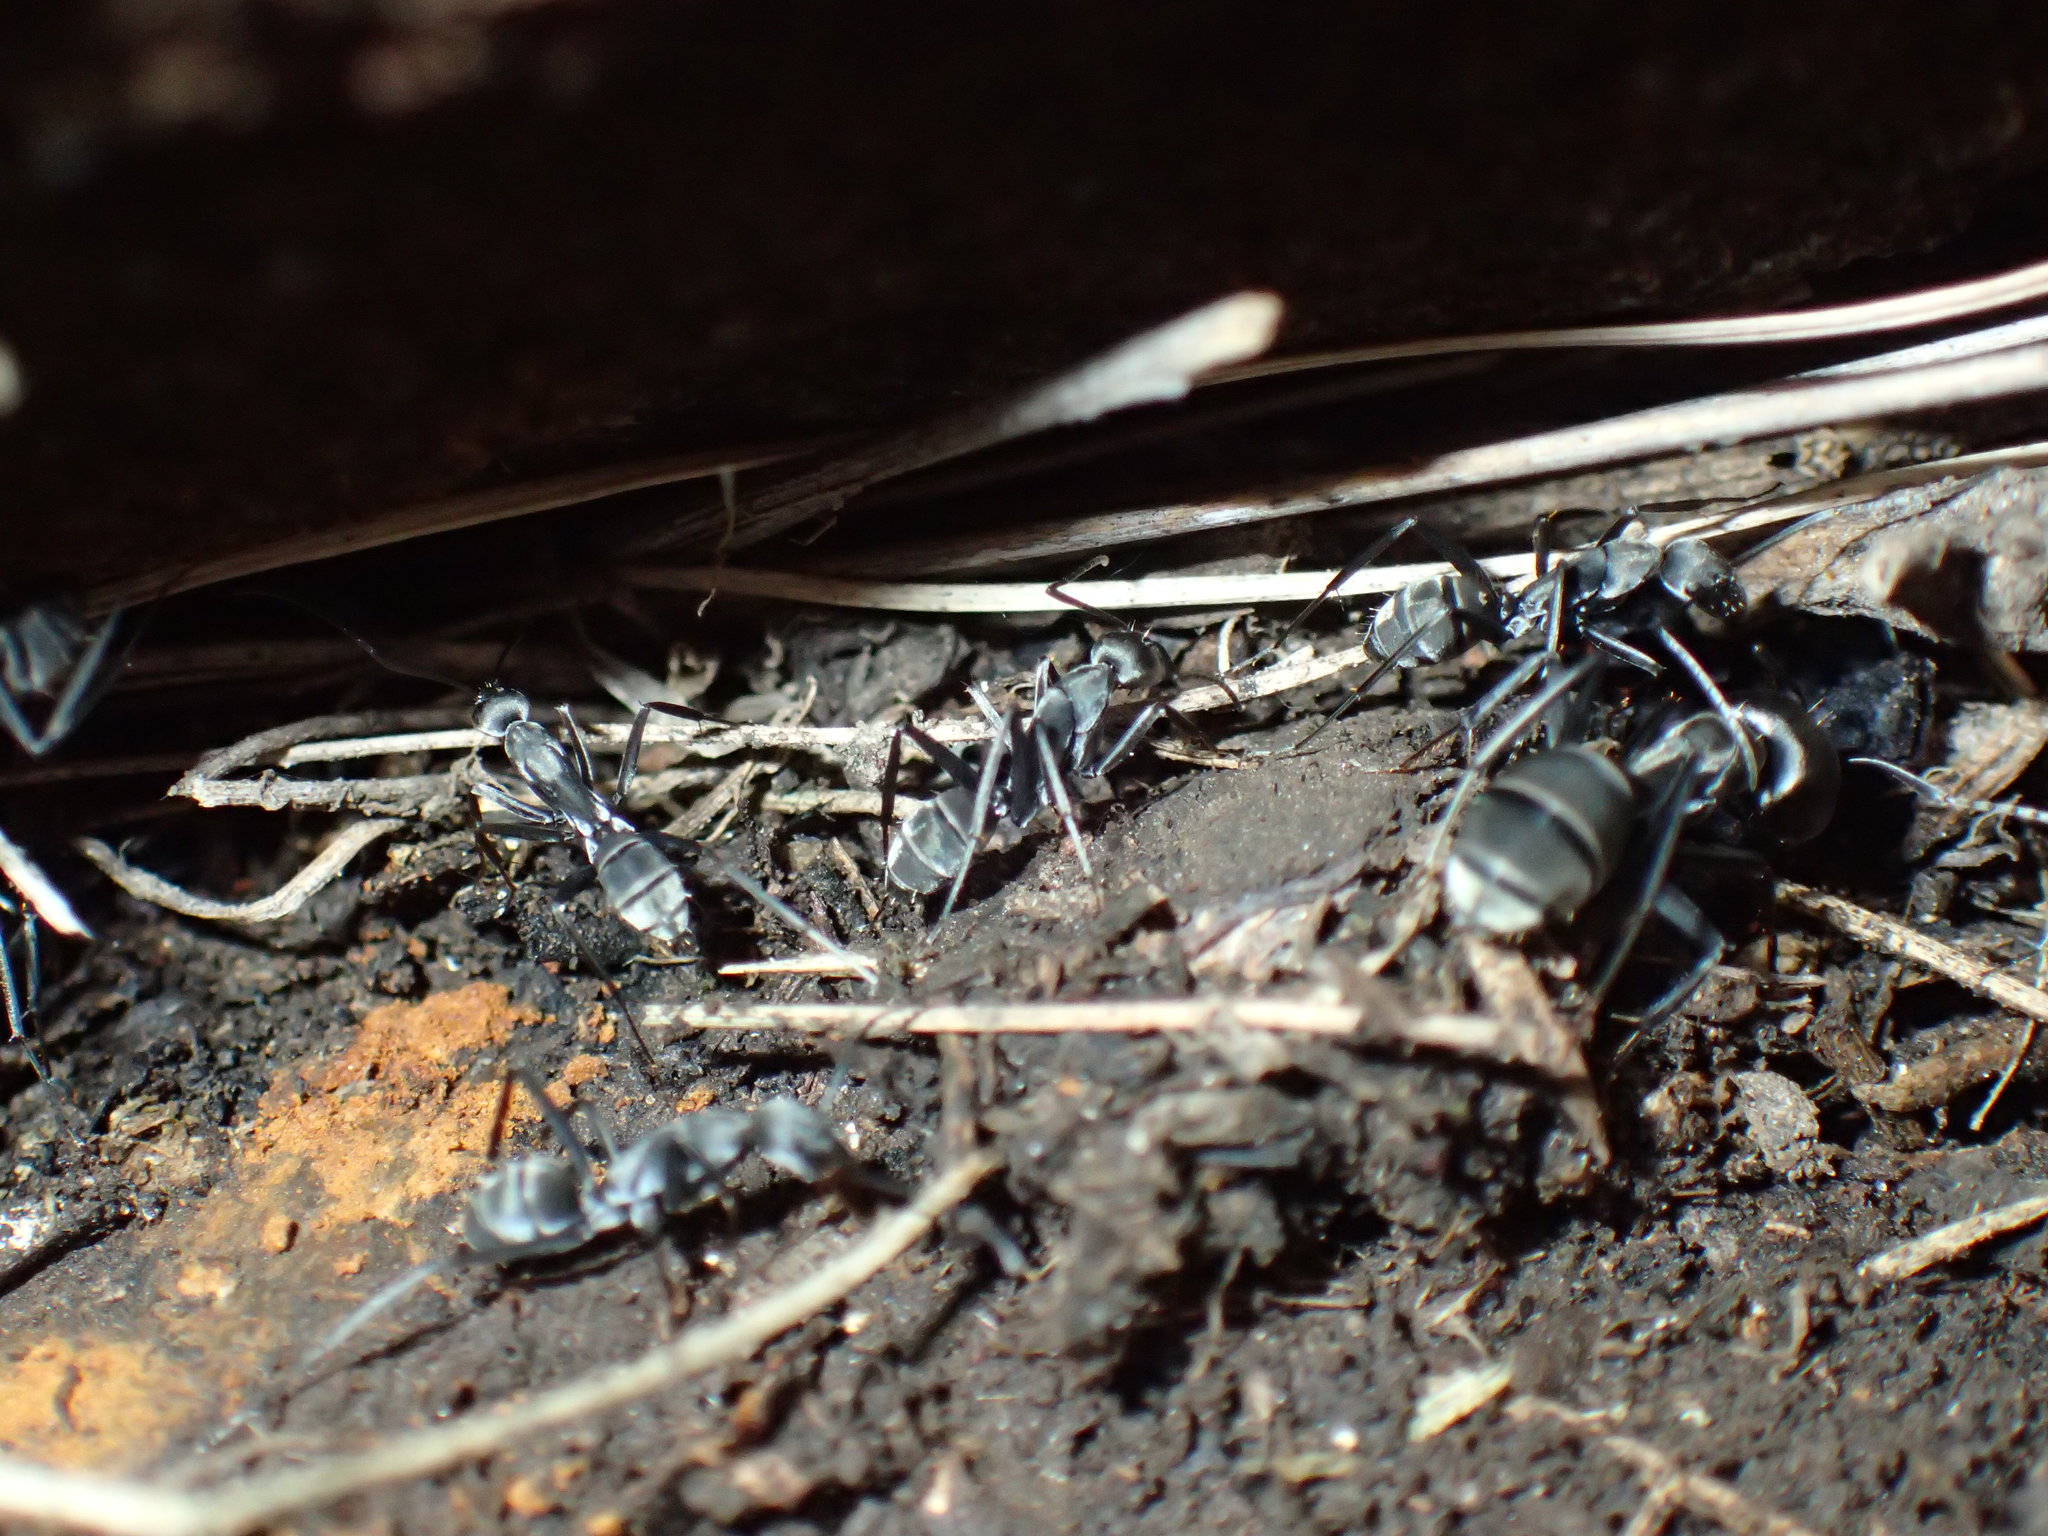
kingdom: Animalia
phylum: Arthropoda
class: Insecta
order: Hymenoptera
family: Formicidae
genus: Camponotus
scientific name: Camponotus cinctellus
